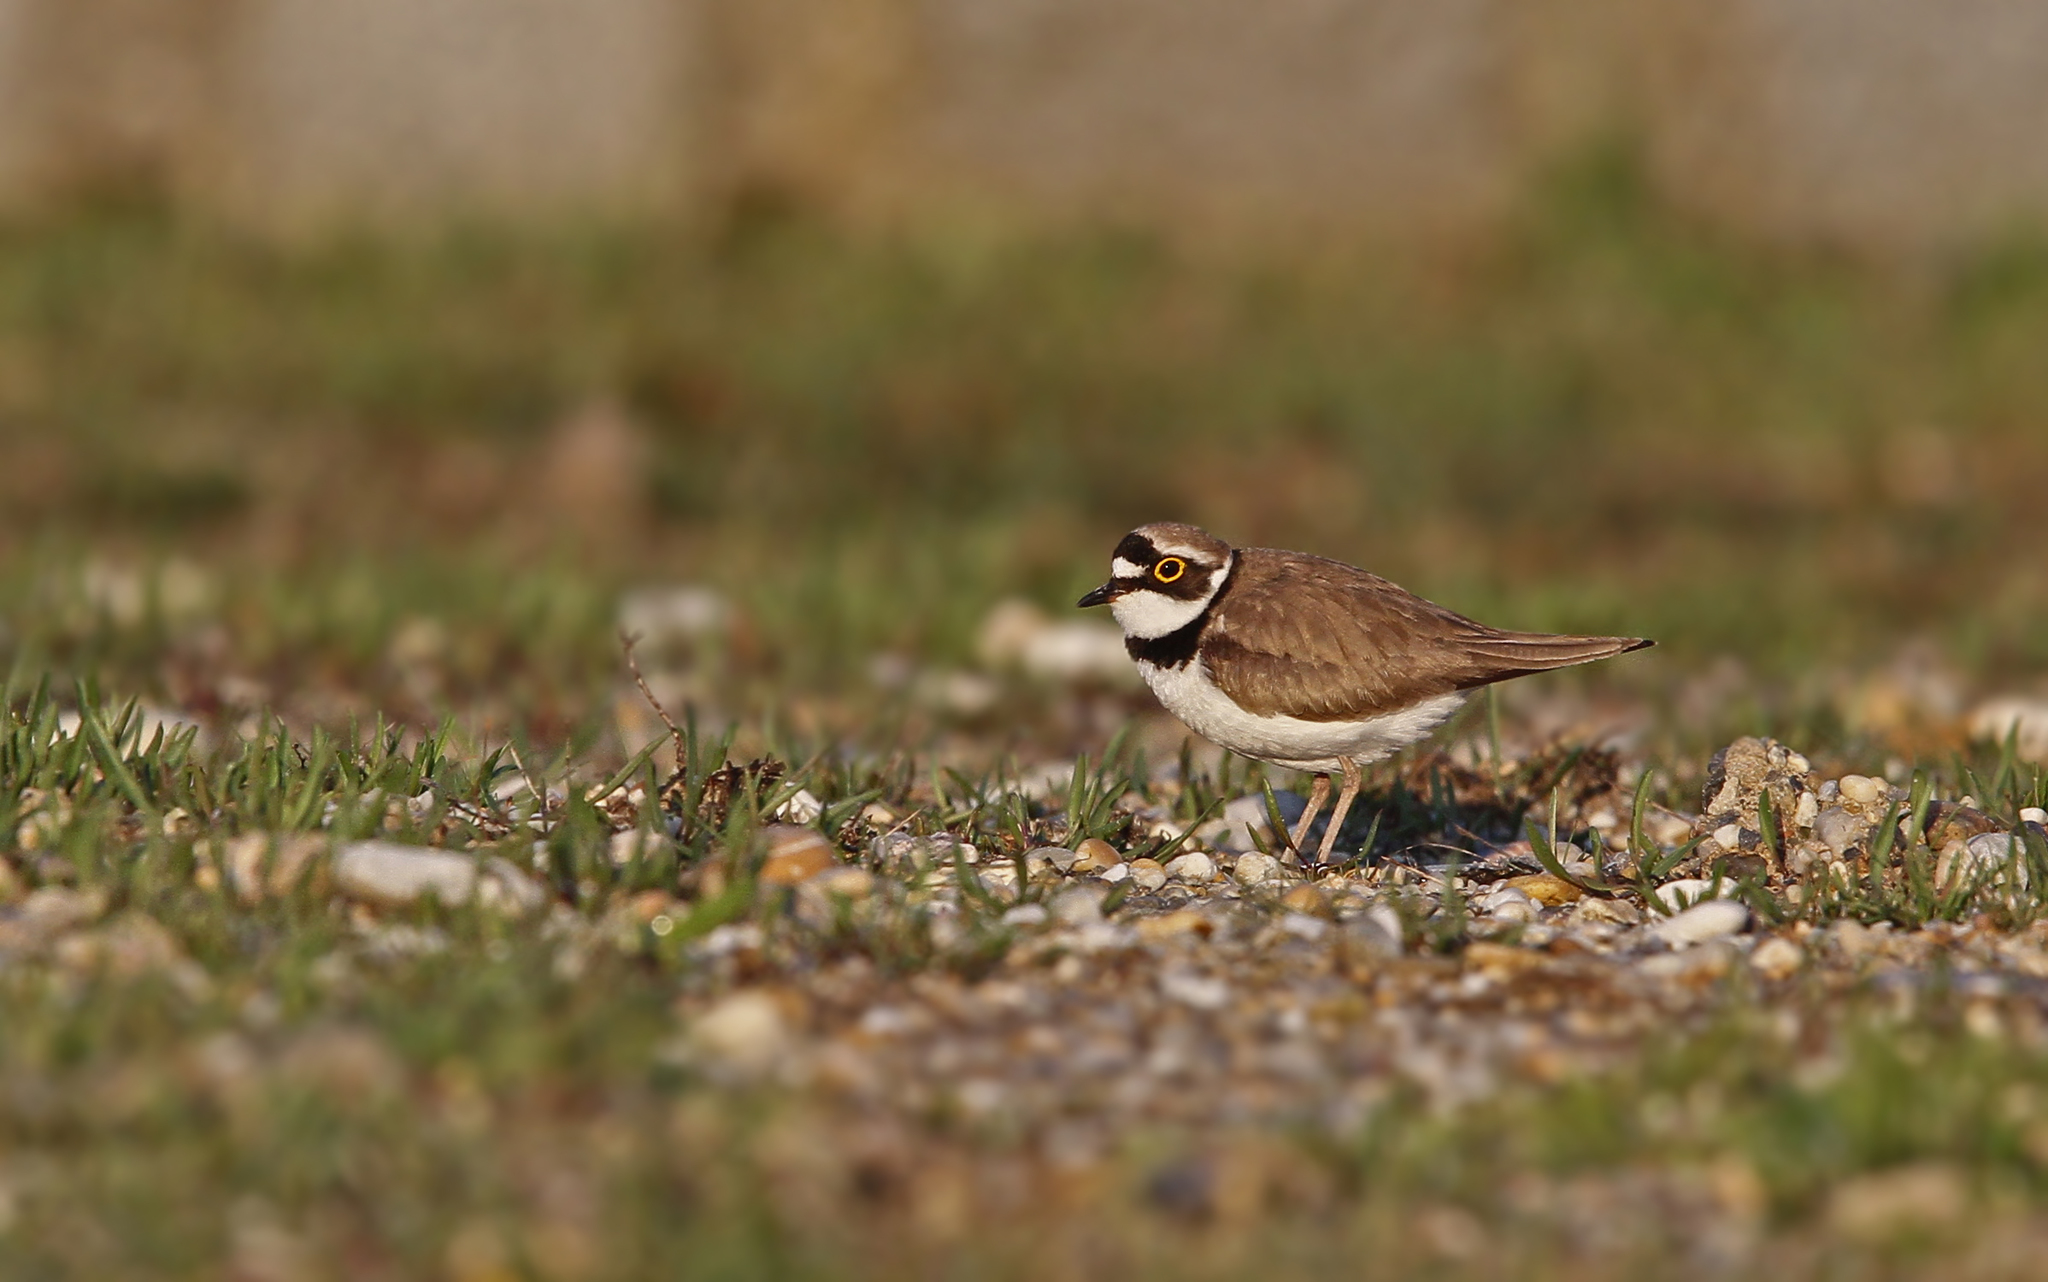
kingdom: Animalia
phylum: Chordata
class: Aves
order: Charadriiformes
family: Charadriidae
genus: Charadrius
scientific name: Charadrius dubius
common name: Little ringed plover
